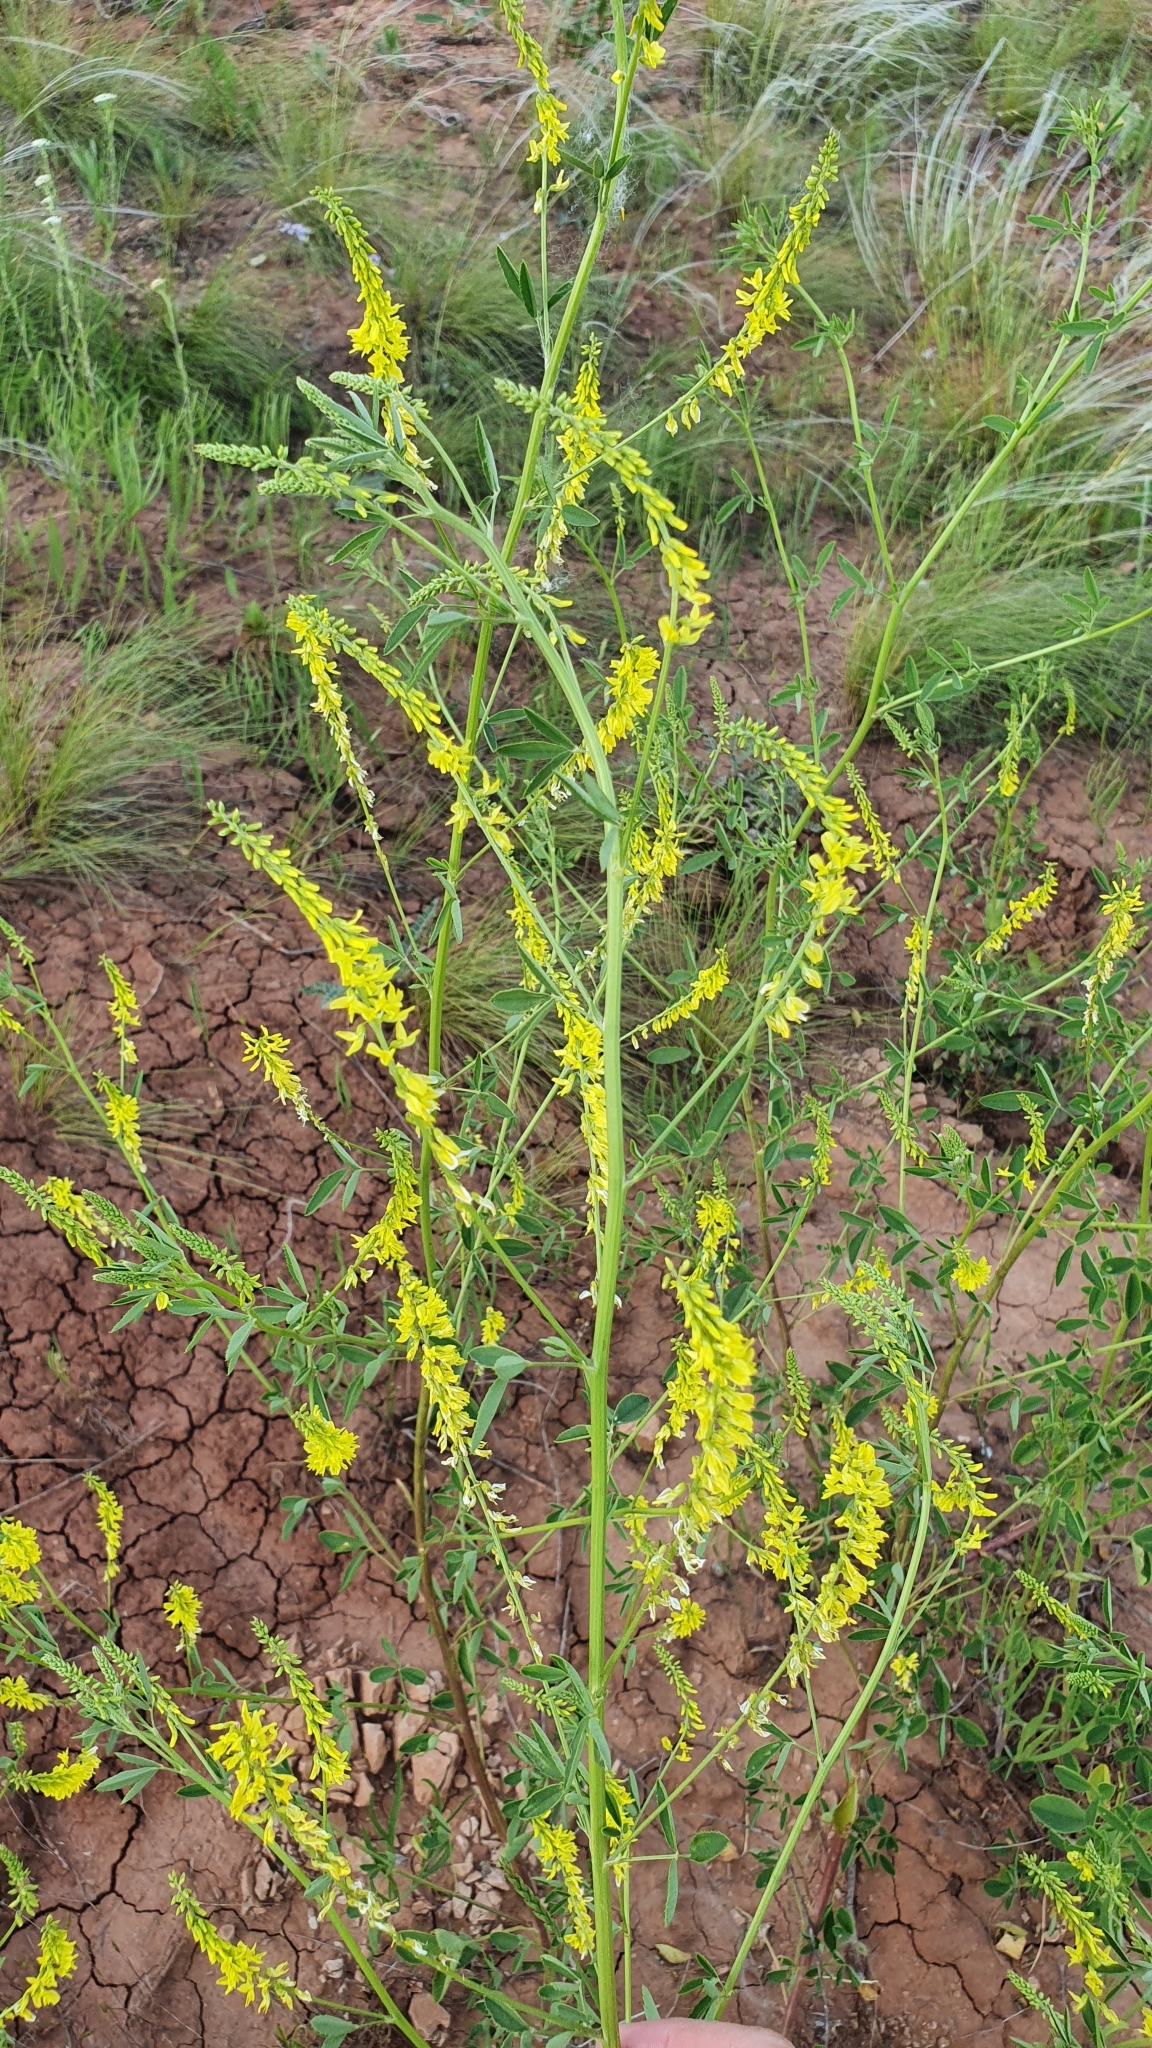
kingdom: Plantae
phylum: Tracheophyta
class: Magnoliopsida
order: Fabales
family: Fabaceae
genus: Melilotus
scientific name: Melilotus officinalis
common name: Sweetclover
